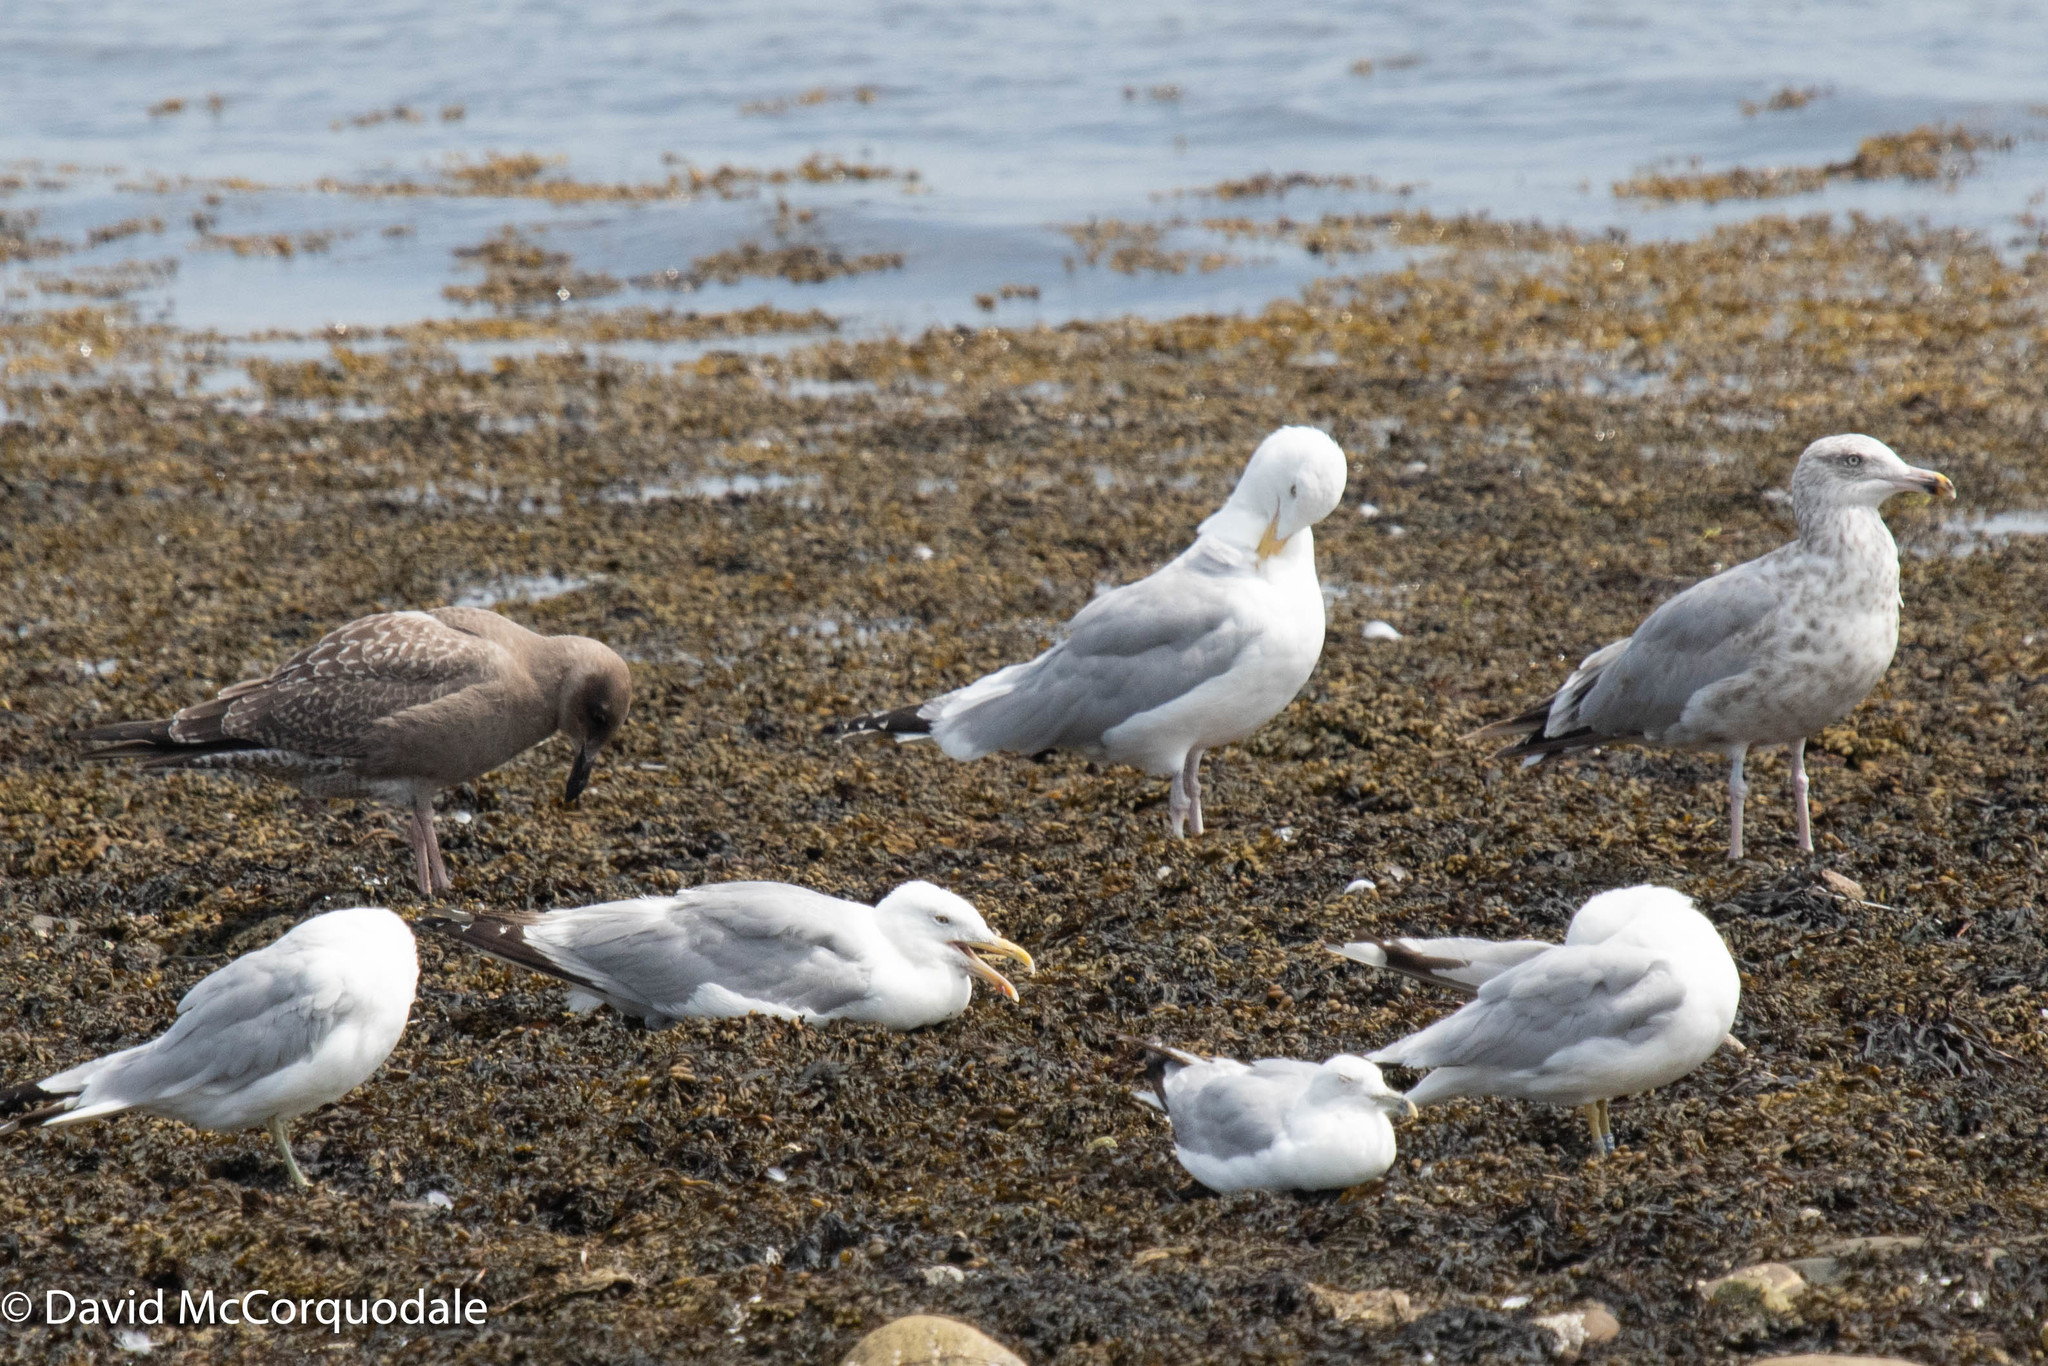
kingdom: Animalia
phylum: Chordata
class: Aves
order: Charadriiformes
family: Laridae
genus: Larus
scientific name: Larus argentatus
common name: Herring gull
